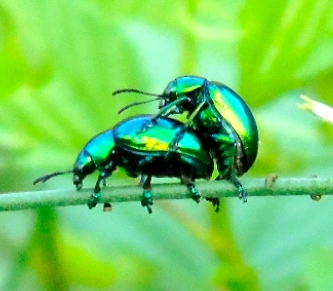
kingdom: Animalia
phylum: Arthropoda
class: Insecta
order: Coleoptera
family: Chrysomelidae
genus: Eumolpus
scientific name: Eumolpus
